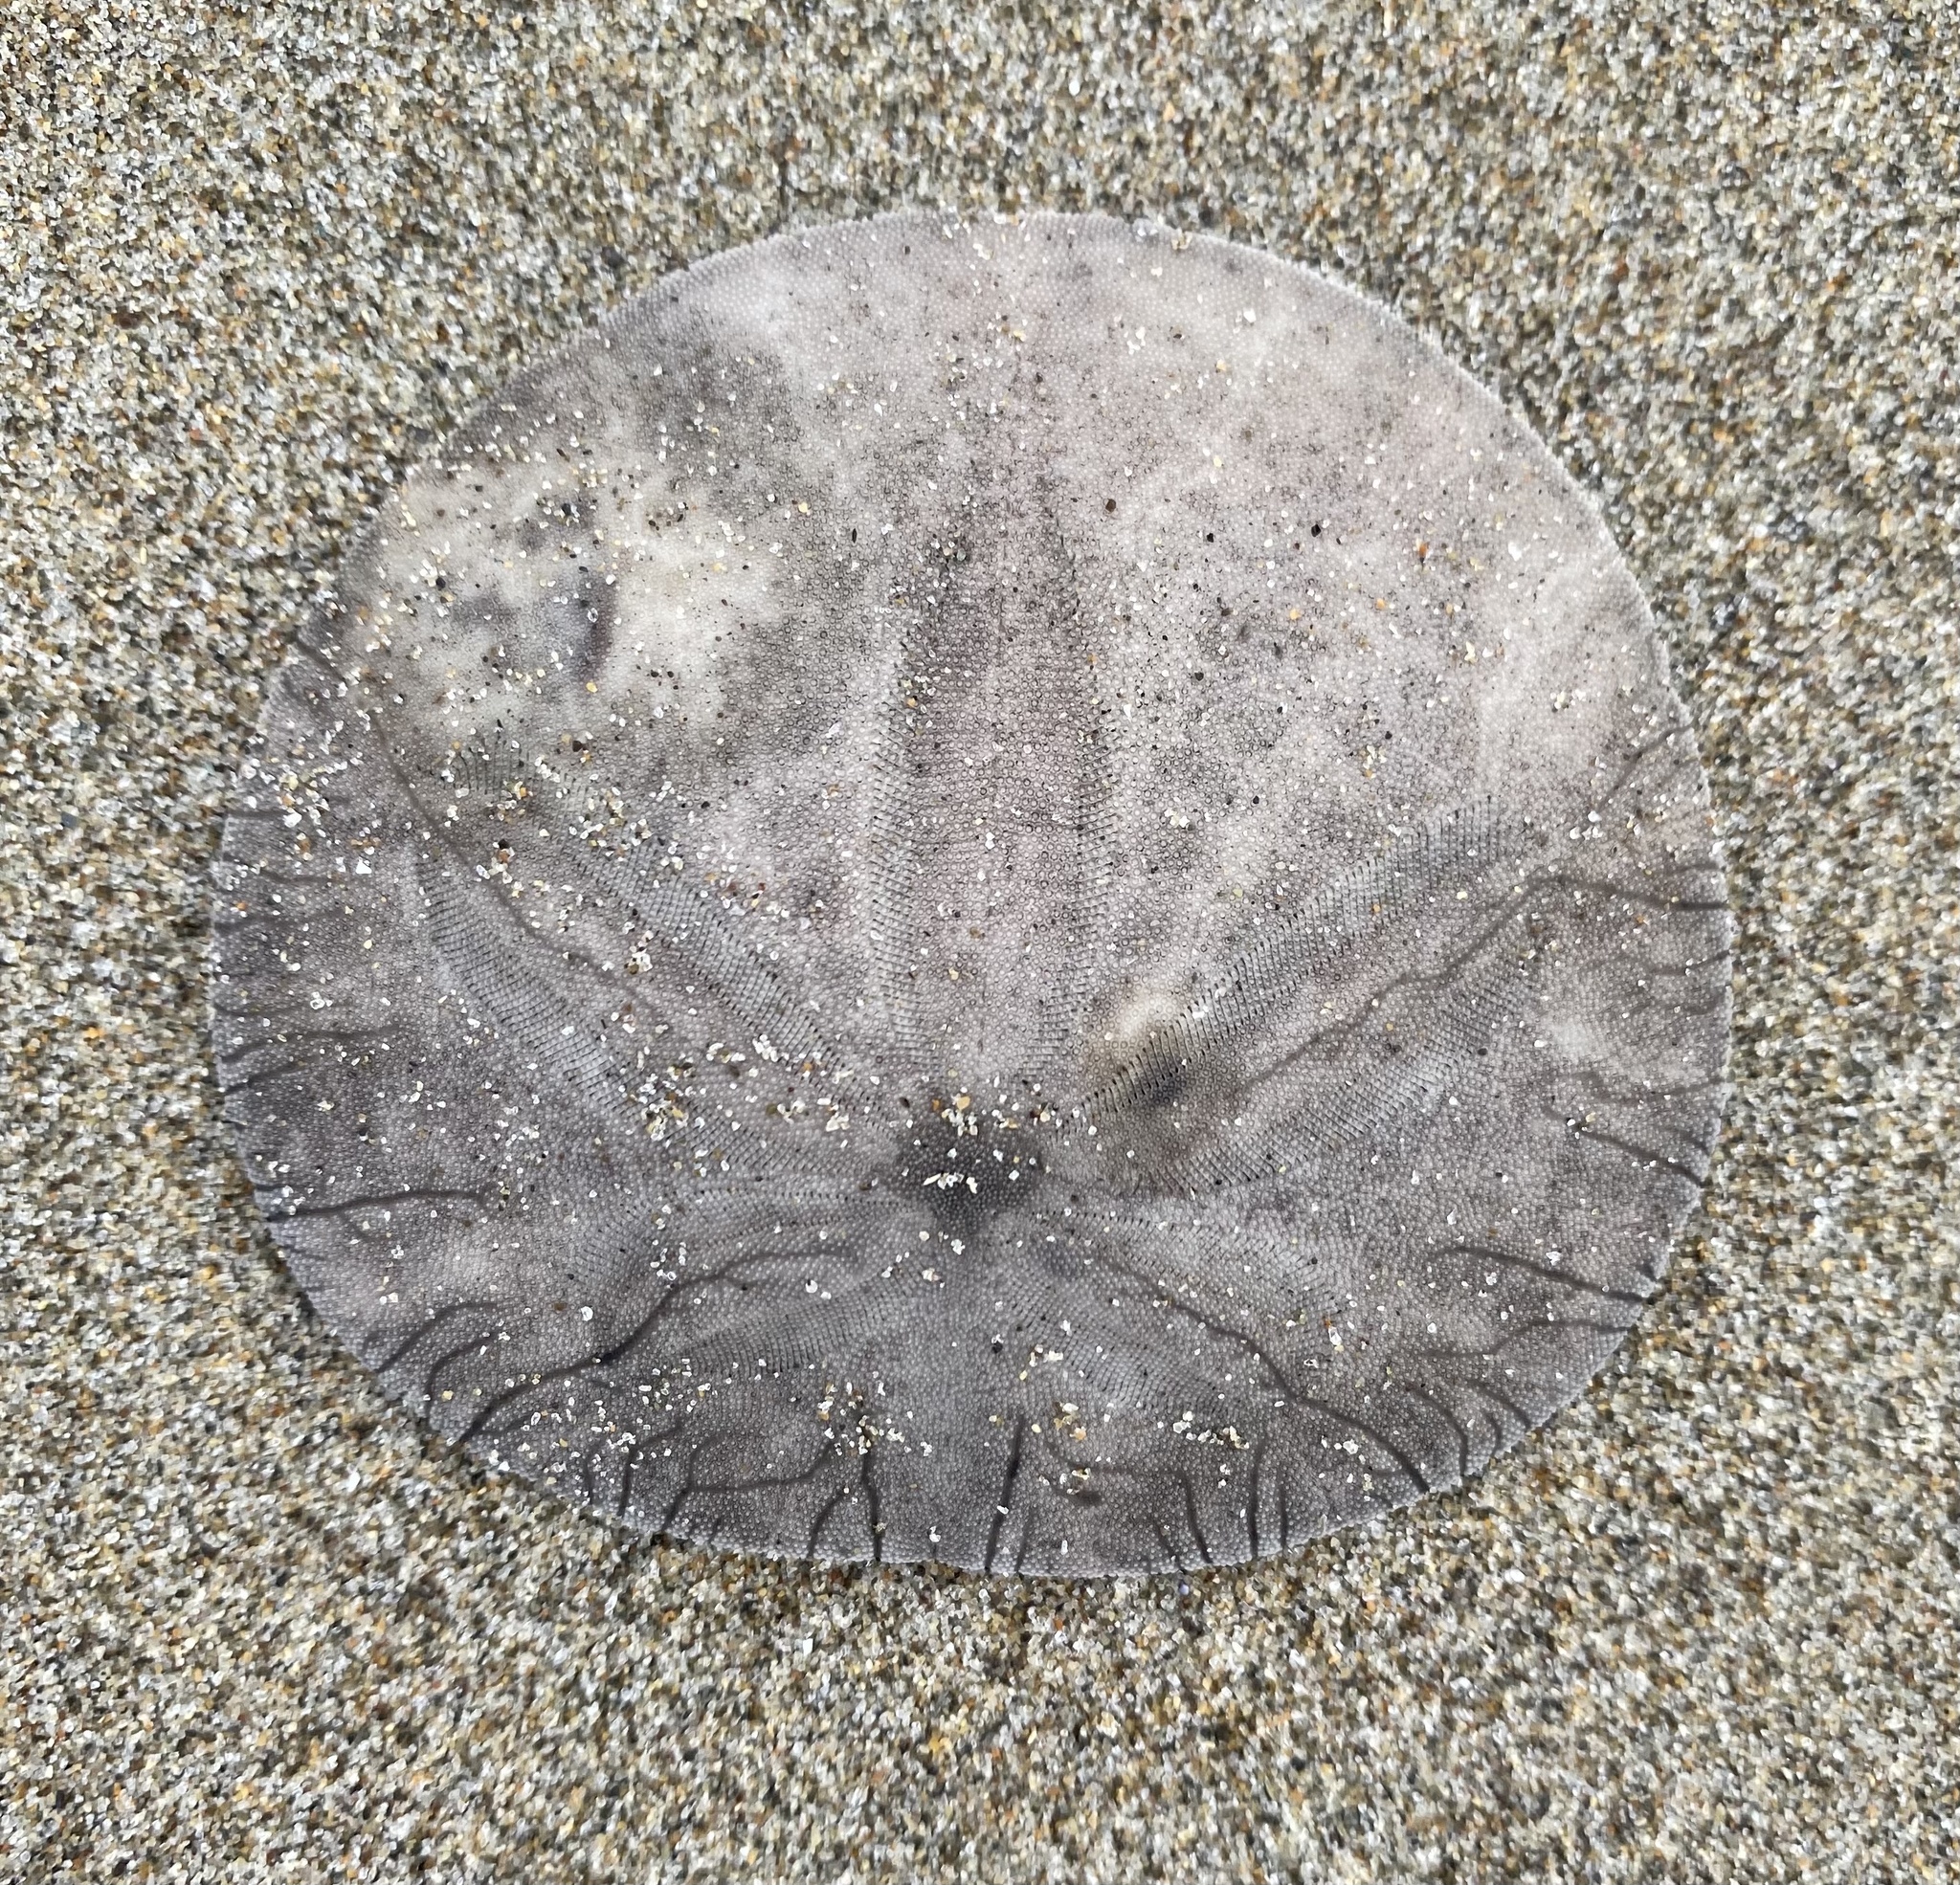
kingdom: Animalia
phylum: Echinodermata
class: Echinoidea
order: Echinolampadacea
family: Dendrasteridae
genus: Dendraster
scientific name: Dendraster excentricus
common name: Eccentric sand dollar sea urchin
